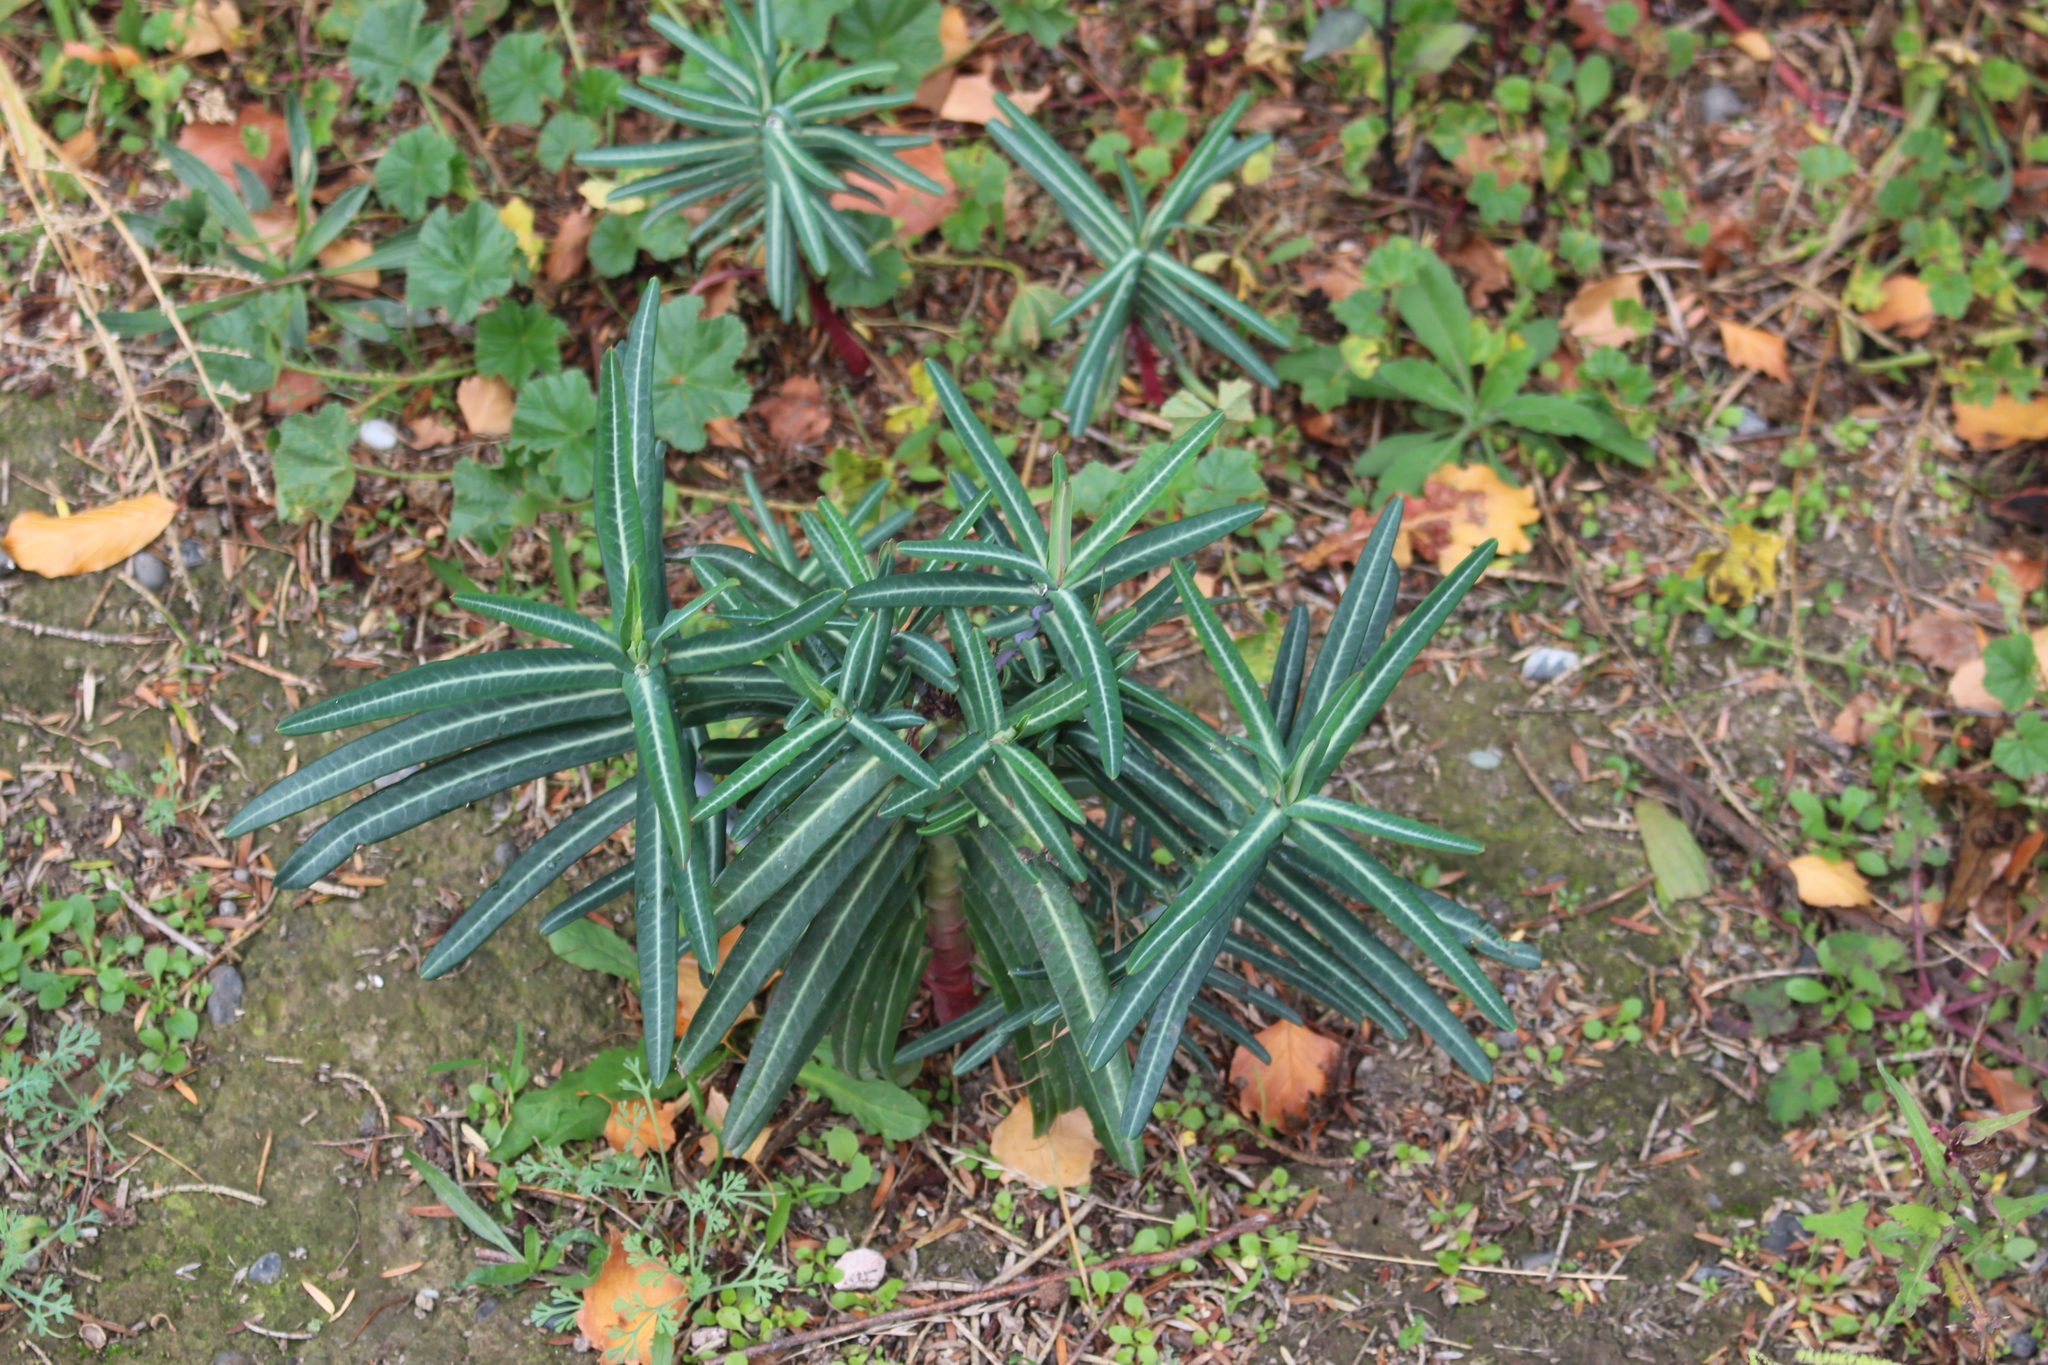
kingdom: Plantae
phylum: Tracheophyta
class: Magnoliopsida
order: Malpighiales
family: Euphorbiaceae
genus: Euphorbia
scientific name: Euphorbia lathyris
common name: Caper spurge
